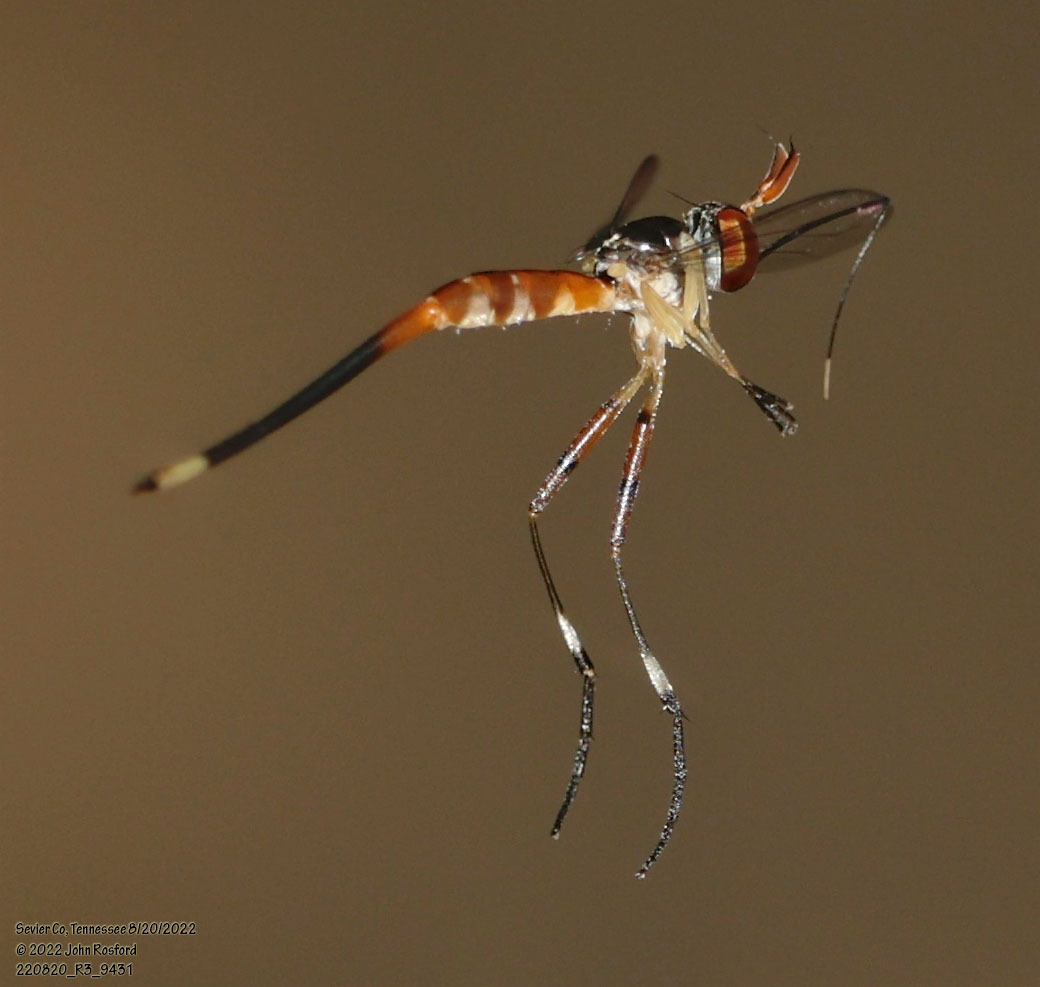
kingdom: Animalia
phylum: Arthropoda
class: Insecta
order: Diptera
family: Conopidae
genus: Stylogaster
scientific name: Stylogaster neglecta
